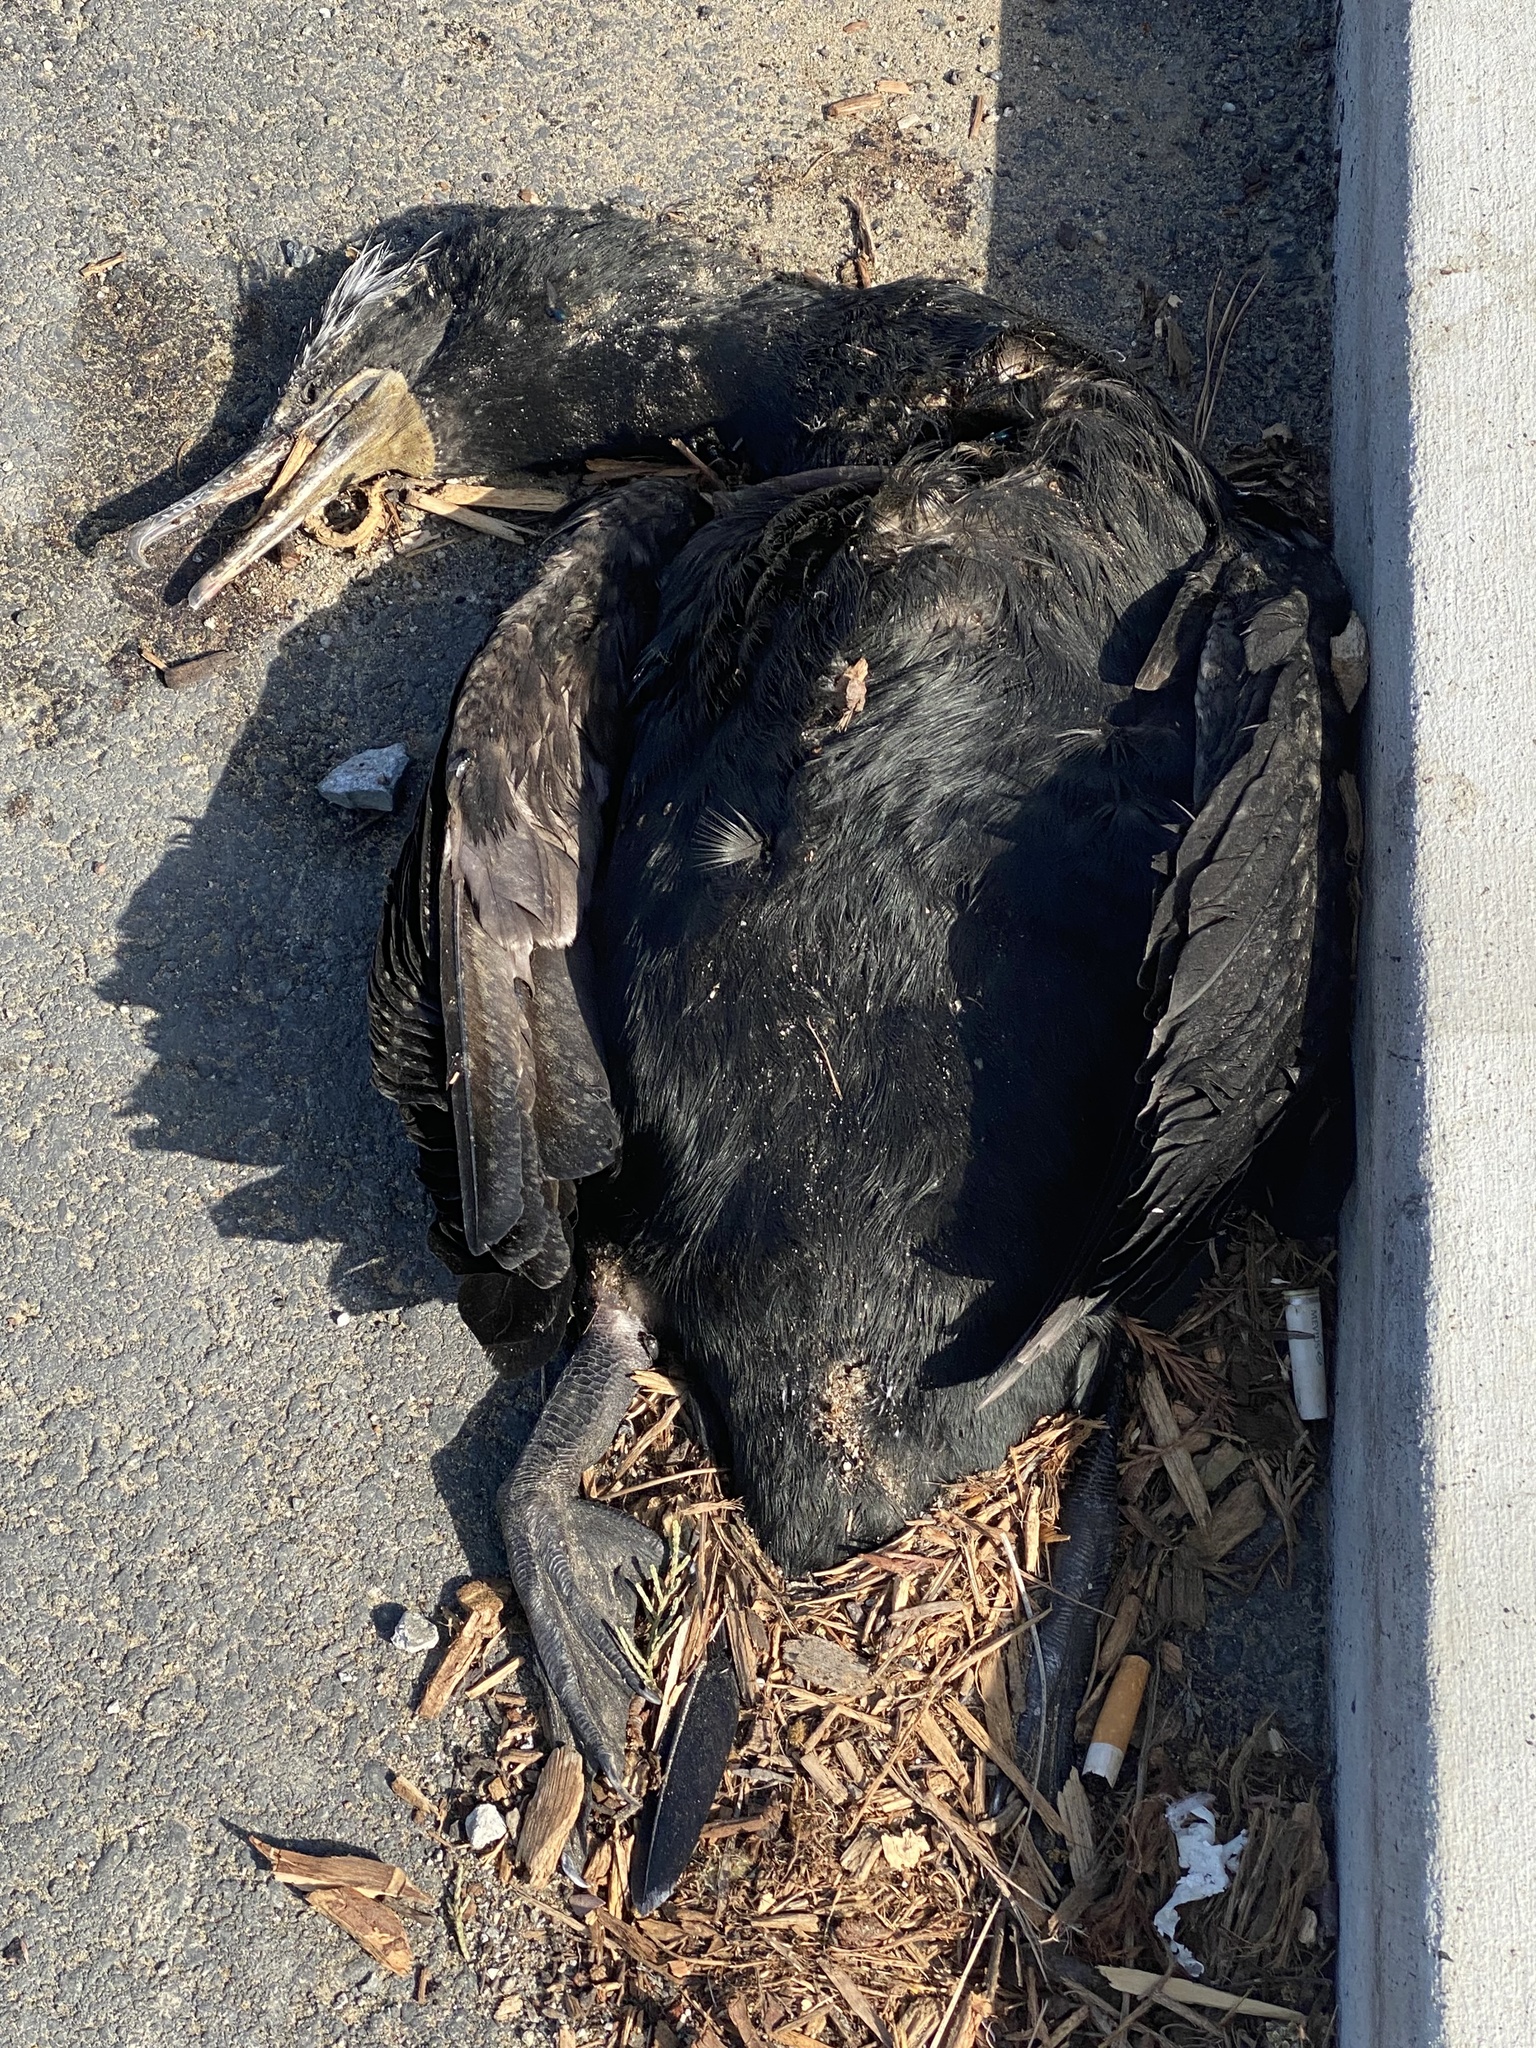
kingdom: Animalia
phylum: Chordata
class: Aves
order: Suliformes
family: Phalacrocoracidae
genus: Phalacrocorax
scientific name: Phalacrocorax auritus
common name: Double-crested cormorant
